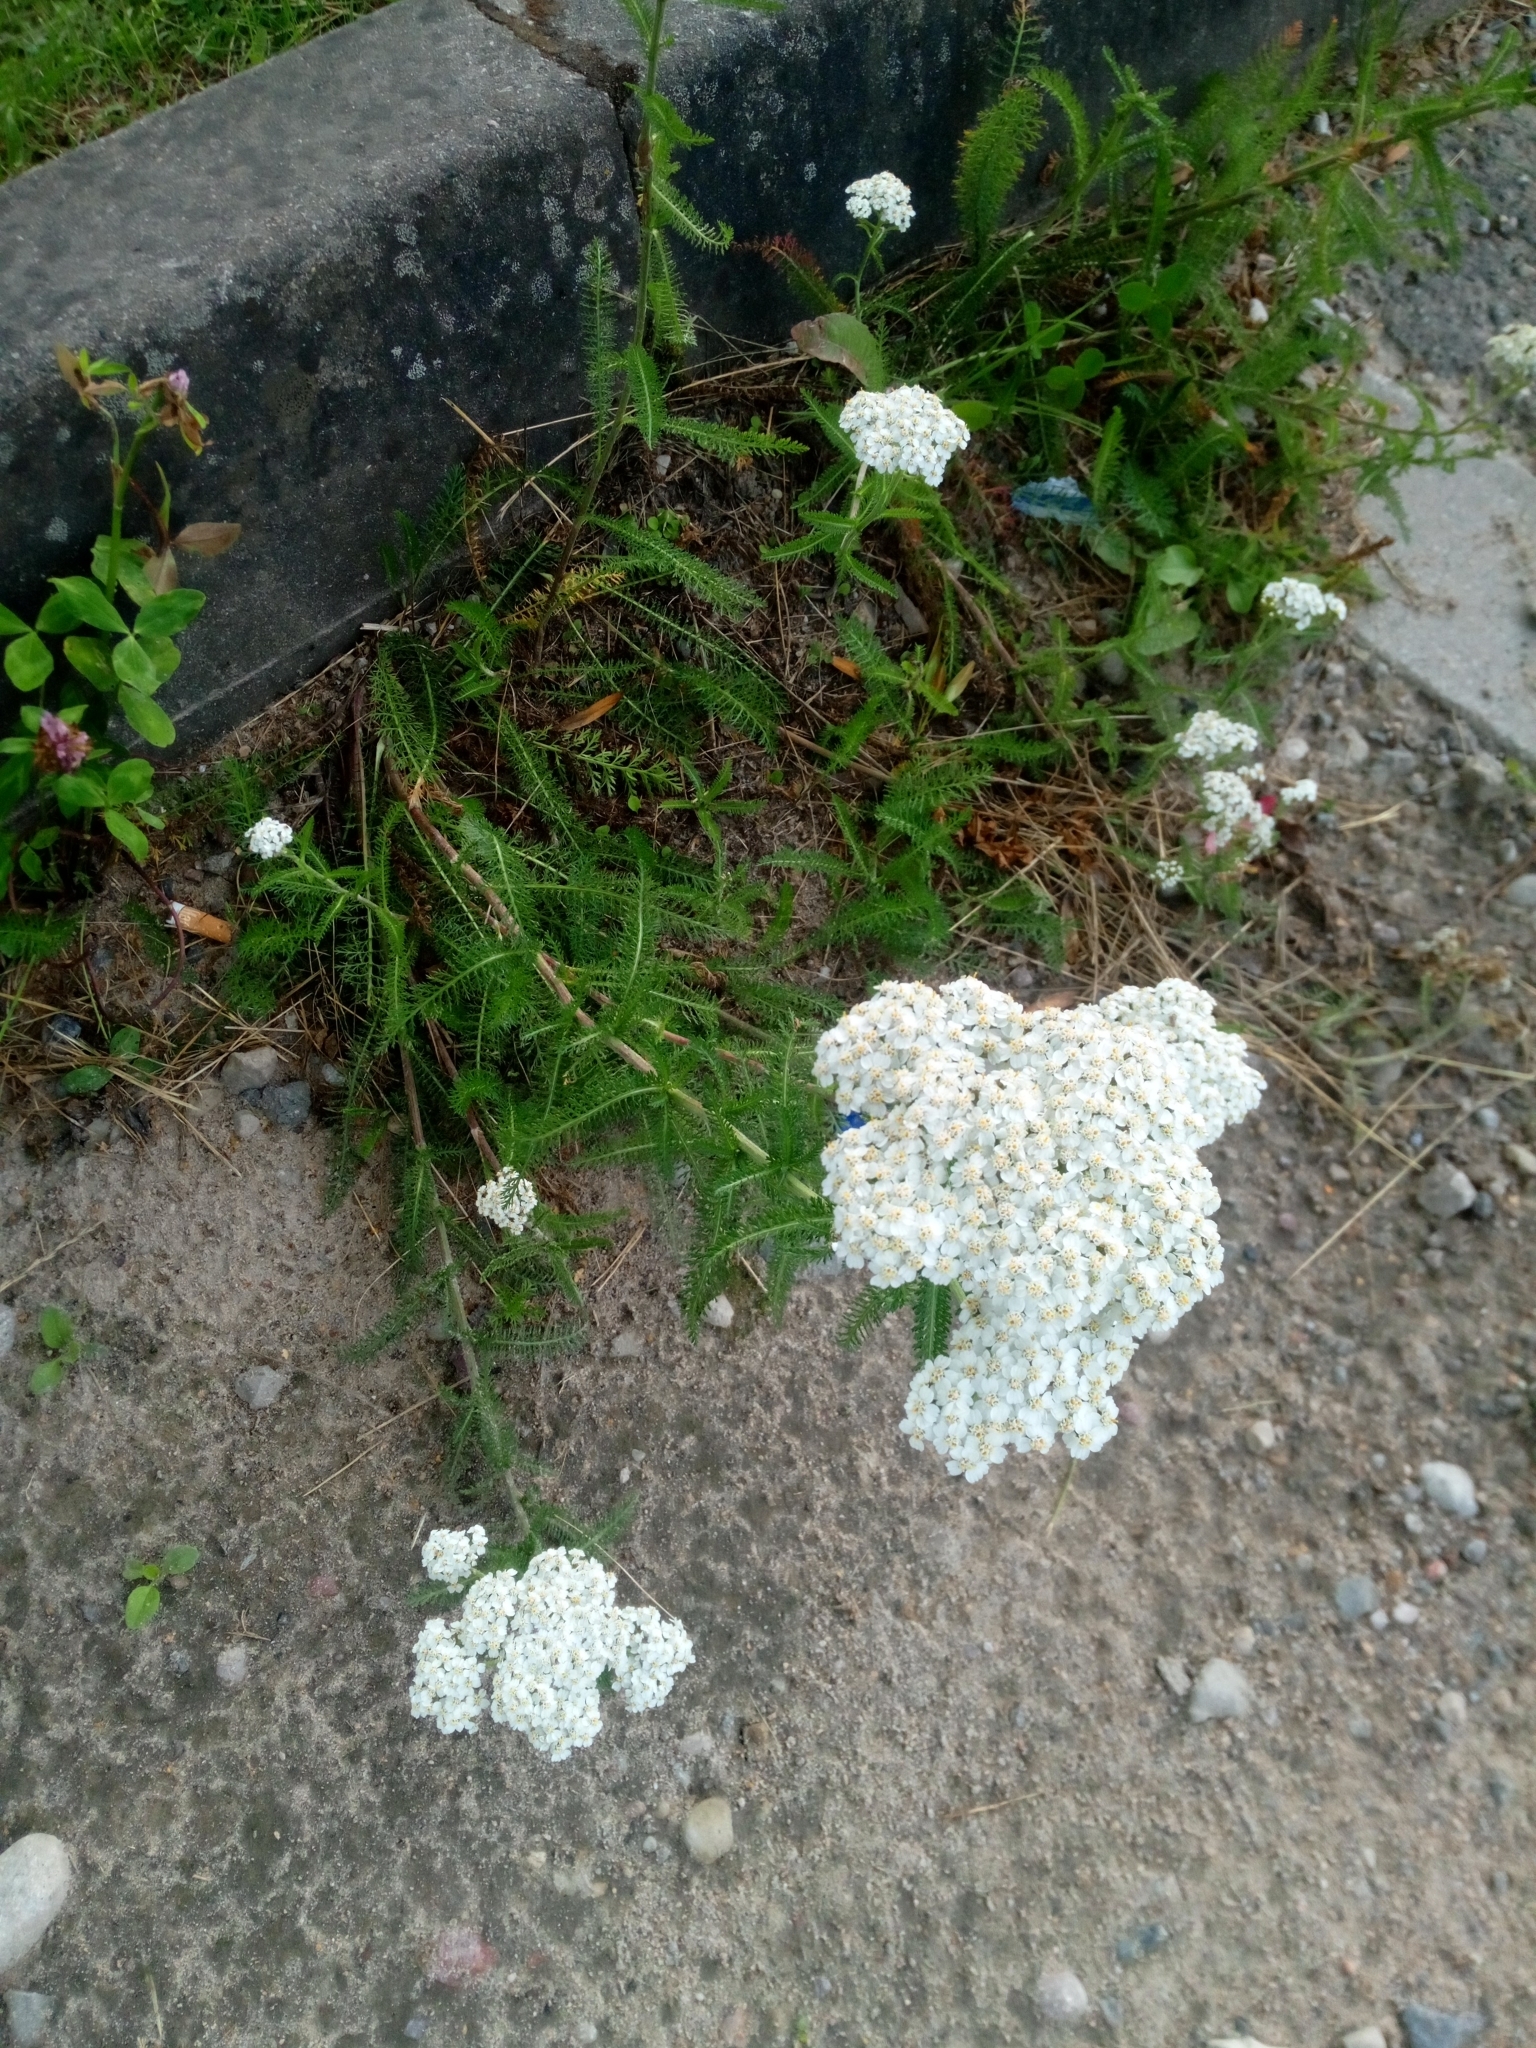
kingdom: Plantae
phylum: Tracheophyta
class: Magnoliopsida
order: Asterales
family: Asteraceae
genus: Achillea
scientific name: Achillea millefolium
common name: Yarrow
